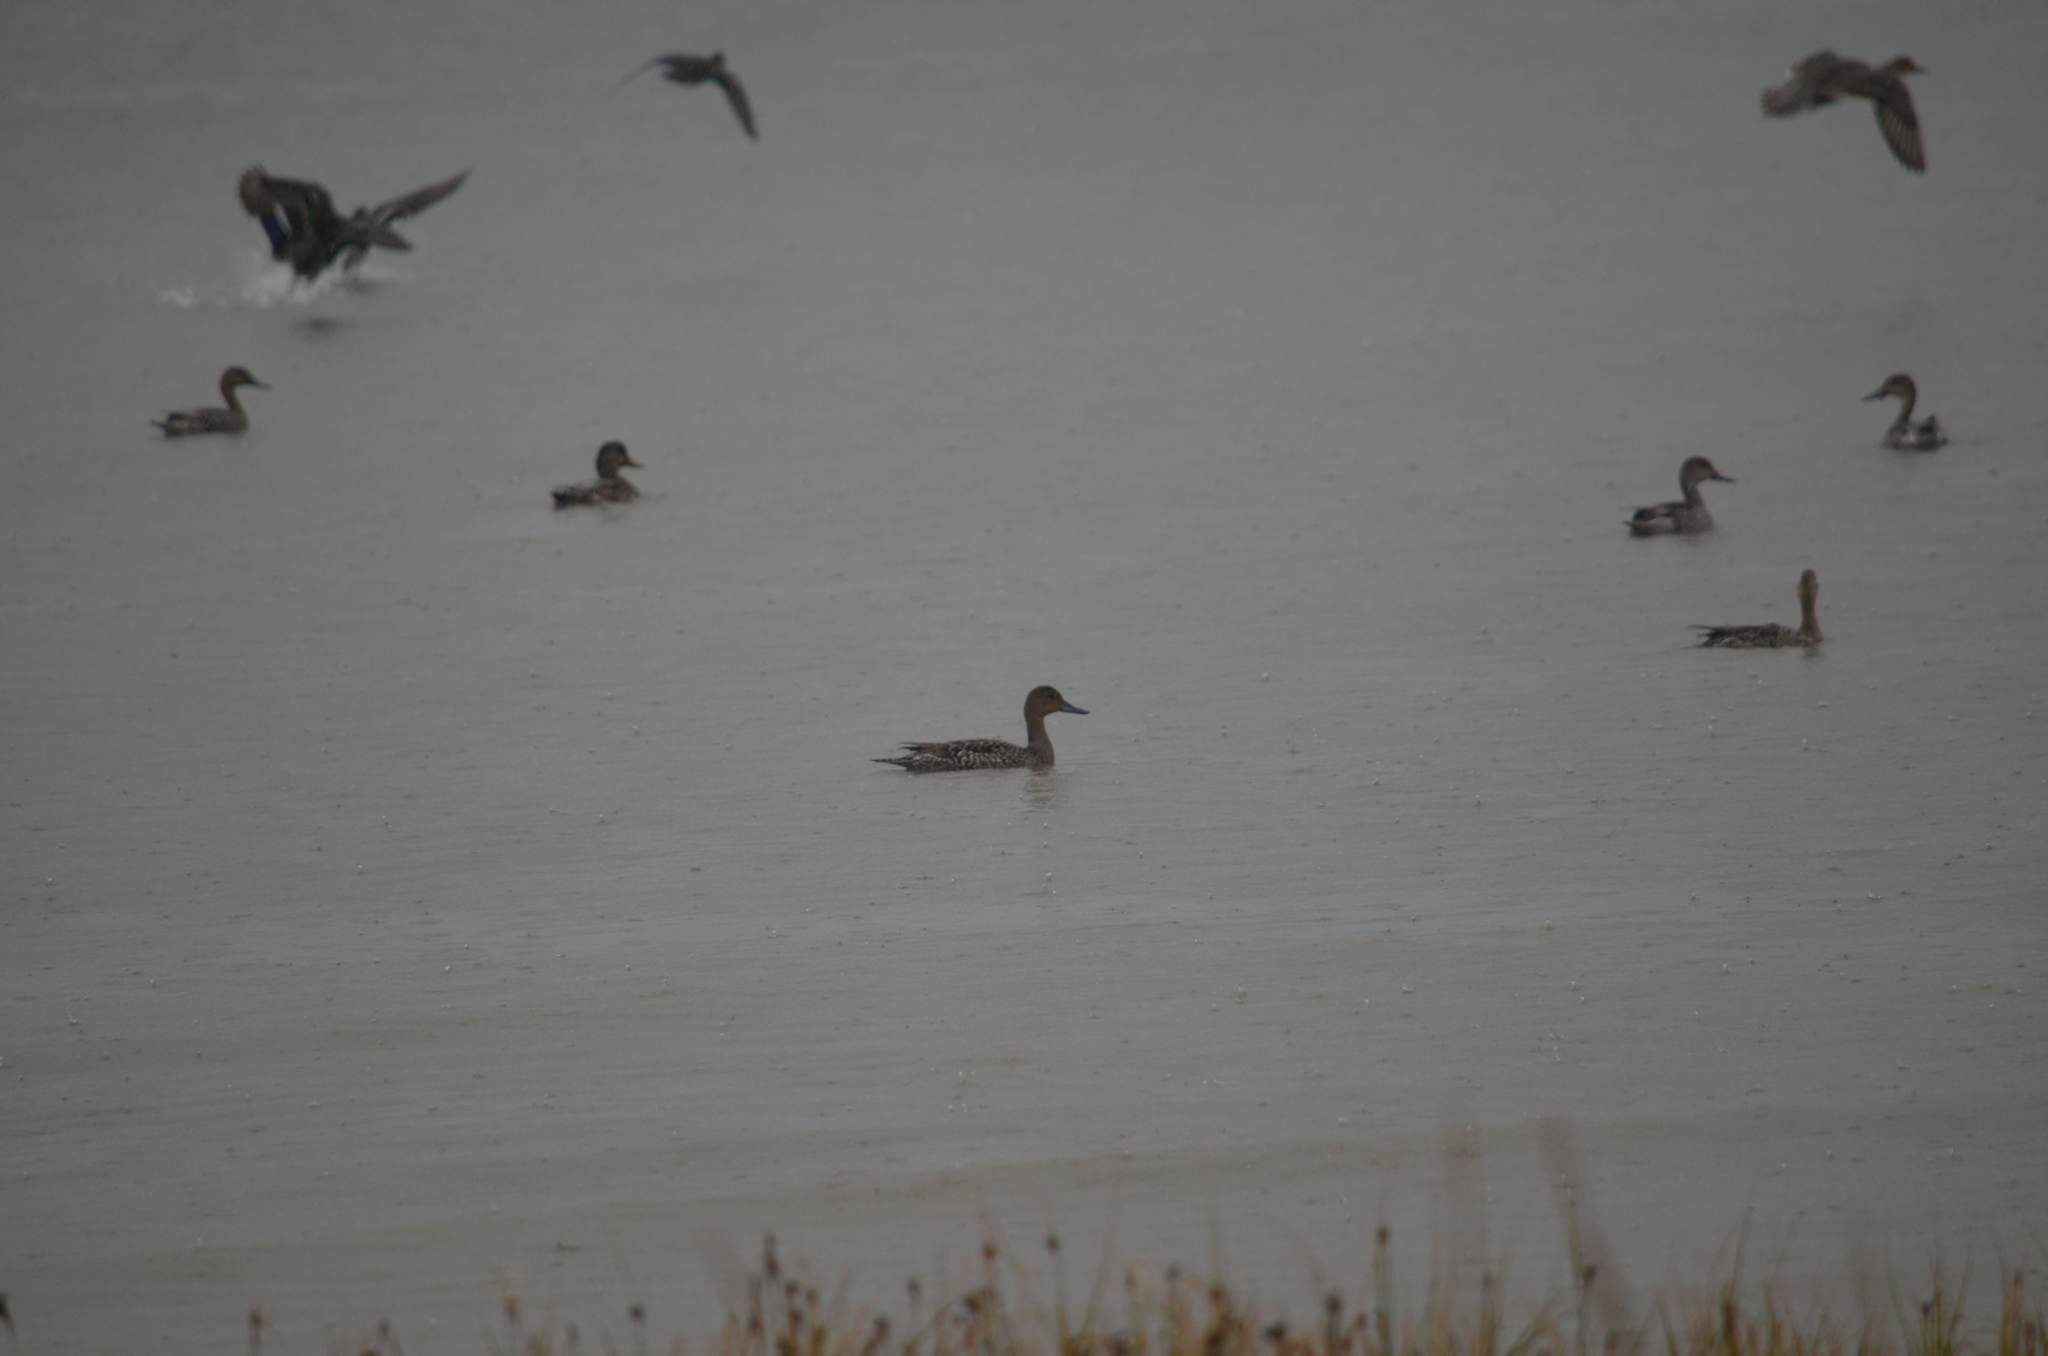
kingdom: Animalia
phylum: Chordata
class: Aves
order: Anseriformes
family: Anatidae
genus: Anas
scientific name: Anas acuta
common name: Northern pintail
